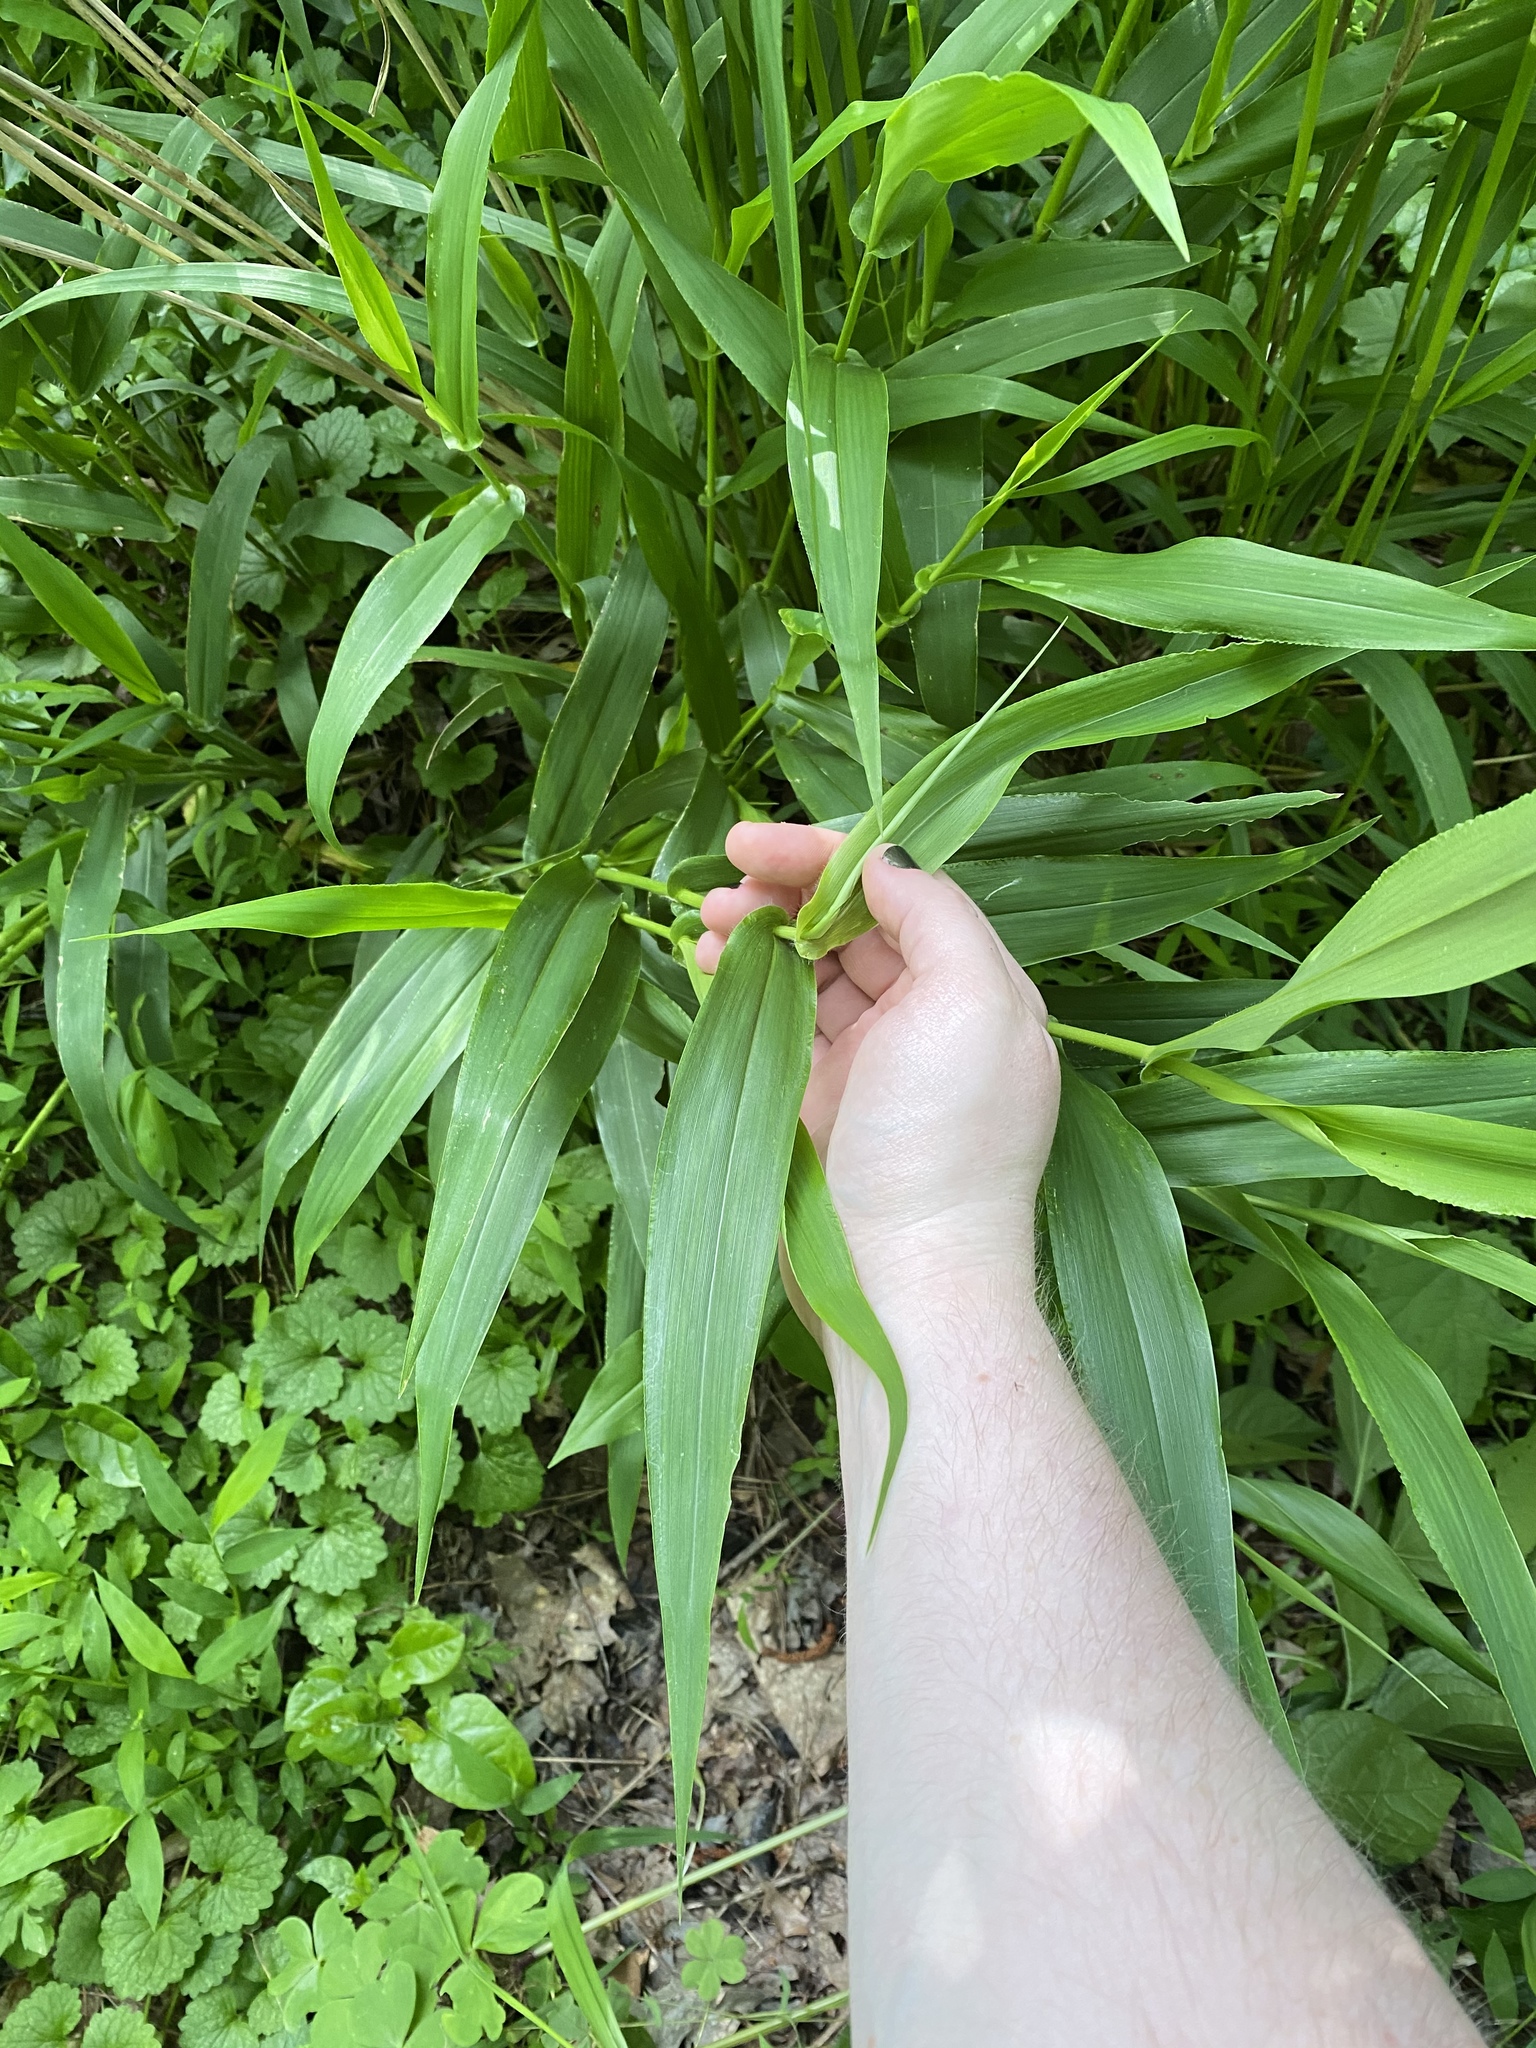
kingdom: Plantae
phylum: Tracheophyta
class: Liliopsida
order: Poales
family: Poaceae
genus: Dichanthelium
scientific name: Dichanthelium clandestinum
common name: Deer-tongue grass
